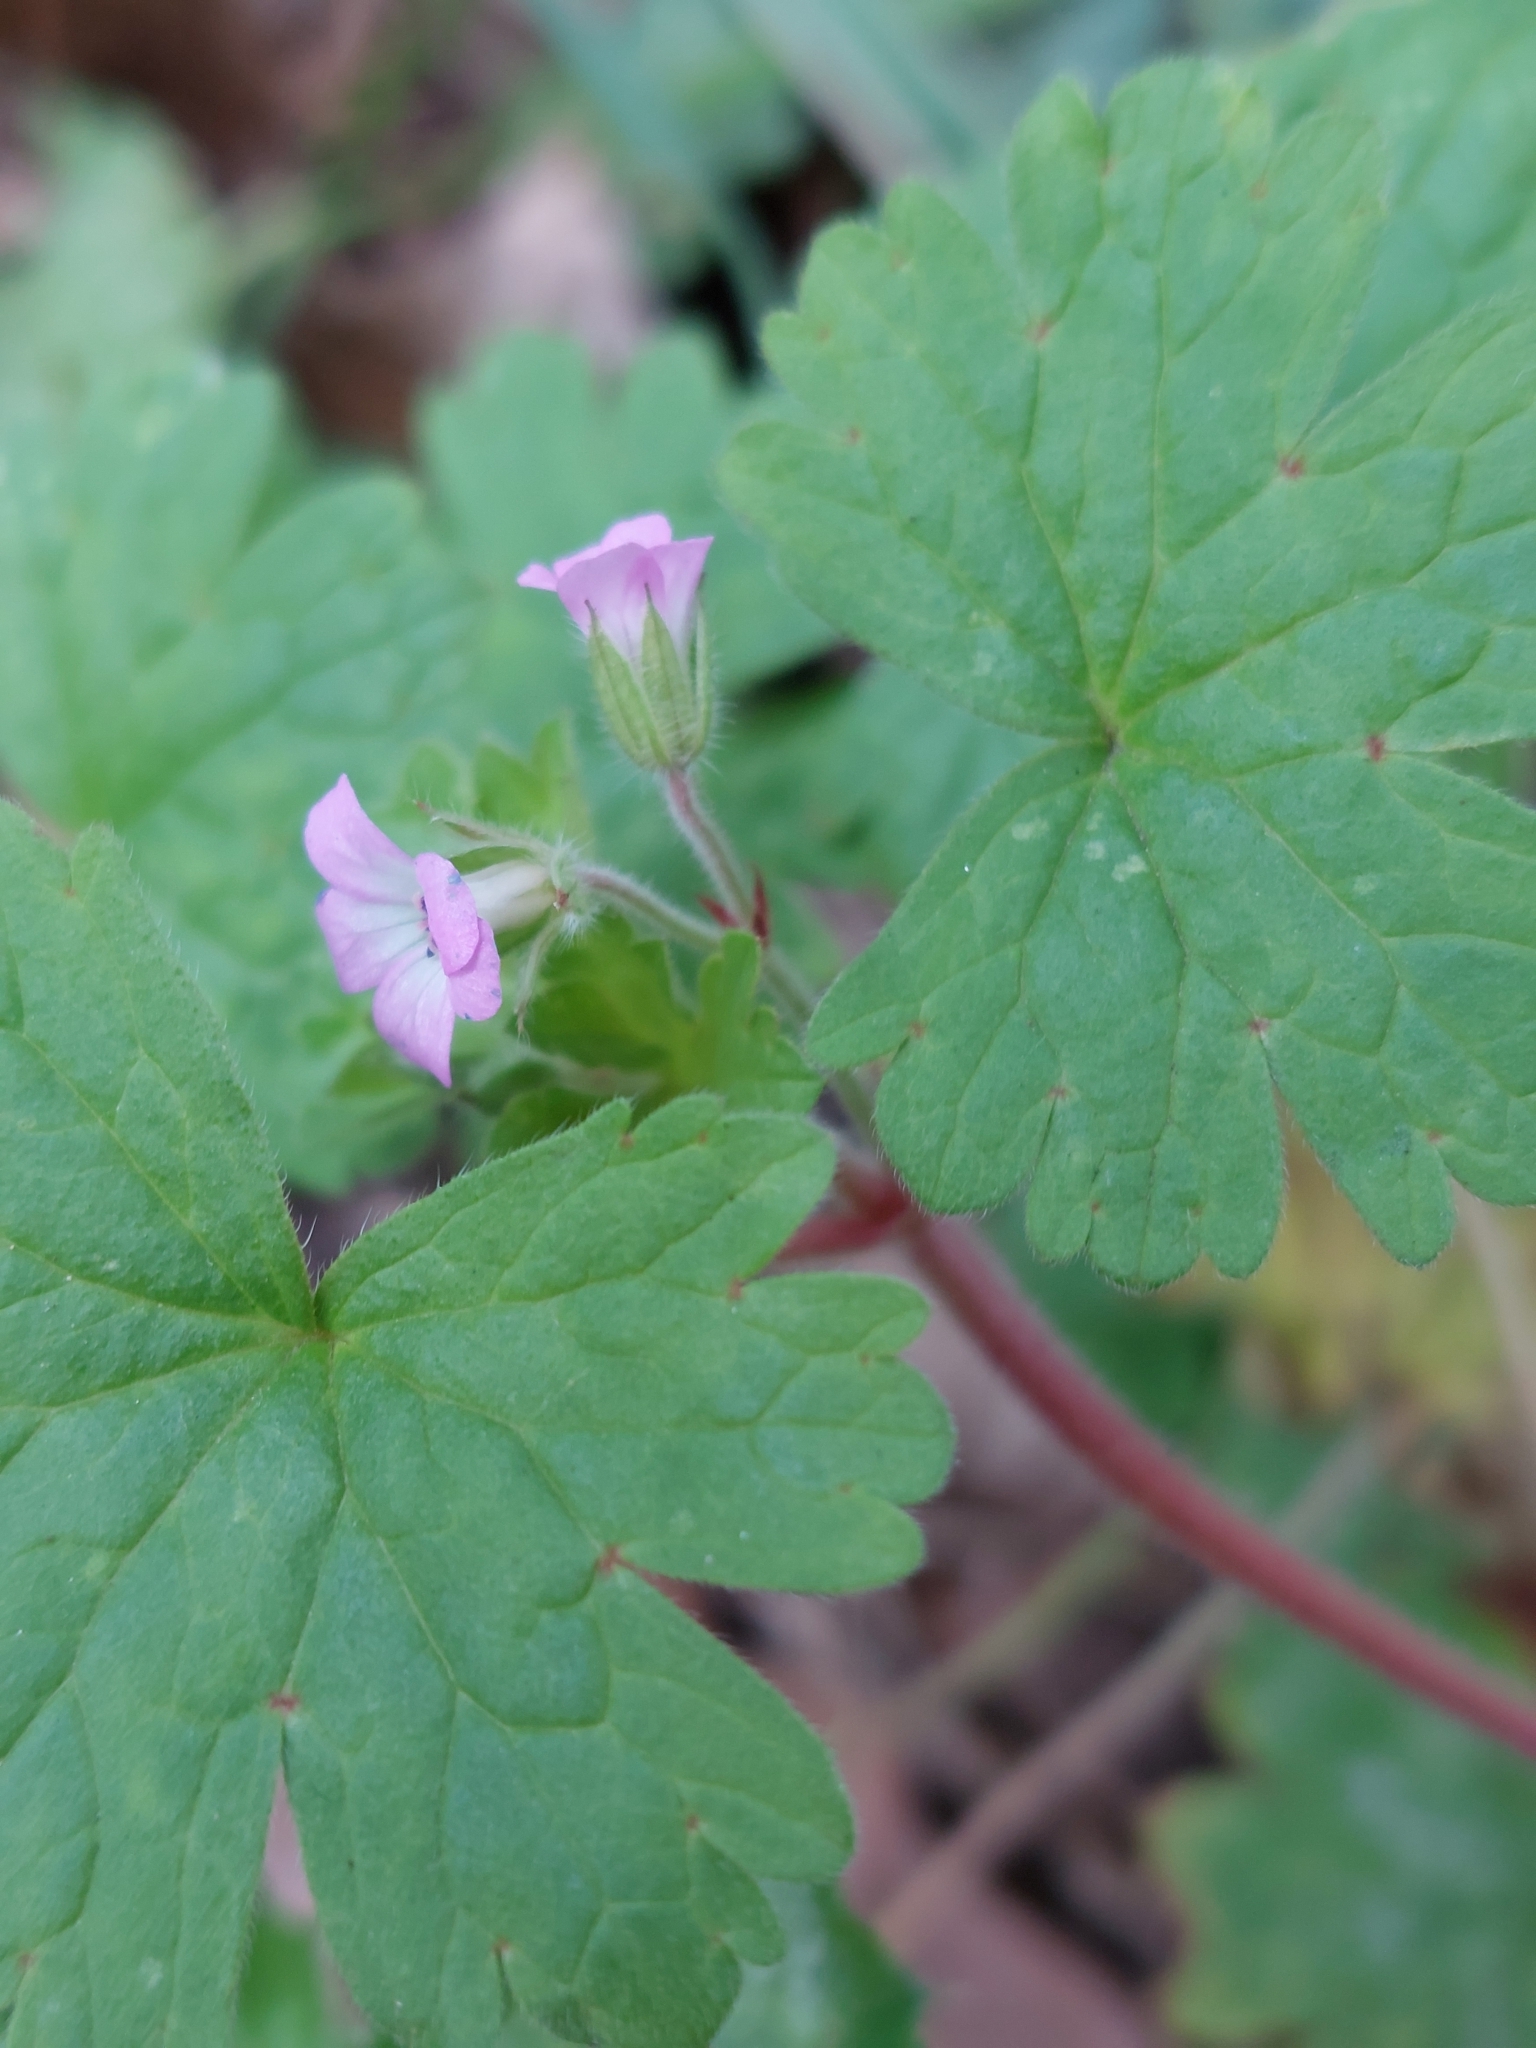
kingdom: Plantae
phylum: Tracheophyta
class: Magnoliopsida
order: Geraniales
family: Geraniaceae
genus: Geranium
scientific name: Geranium rotundifolium
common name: Round-leaved crane's-bill
